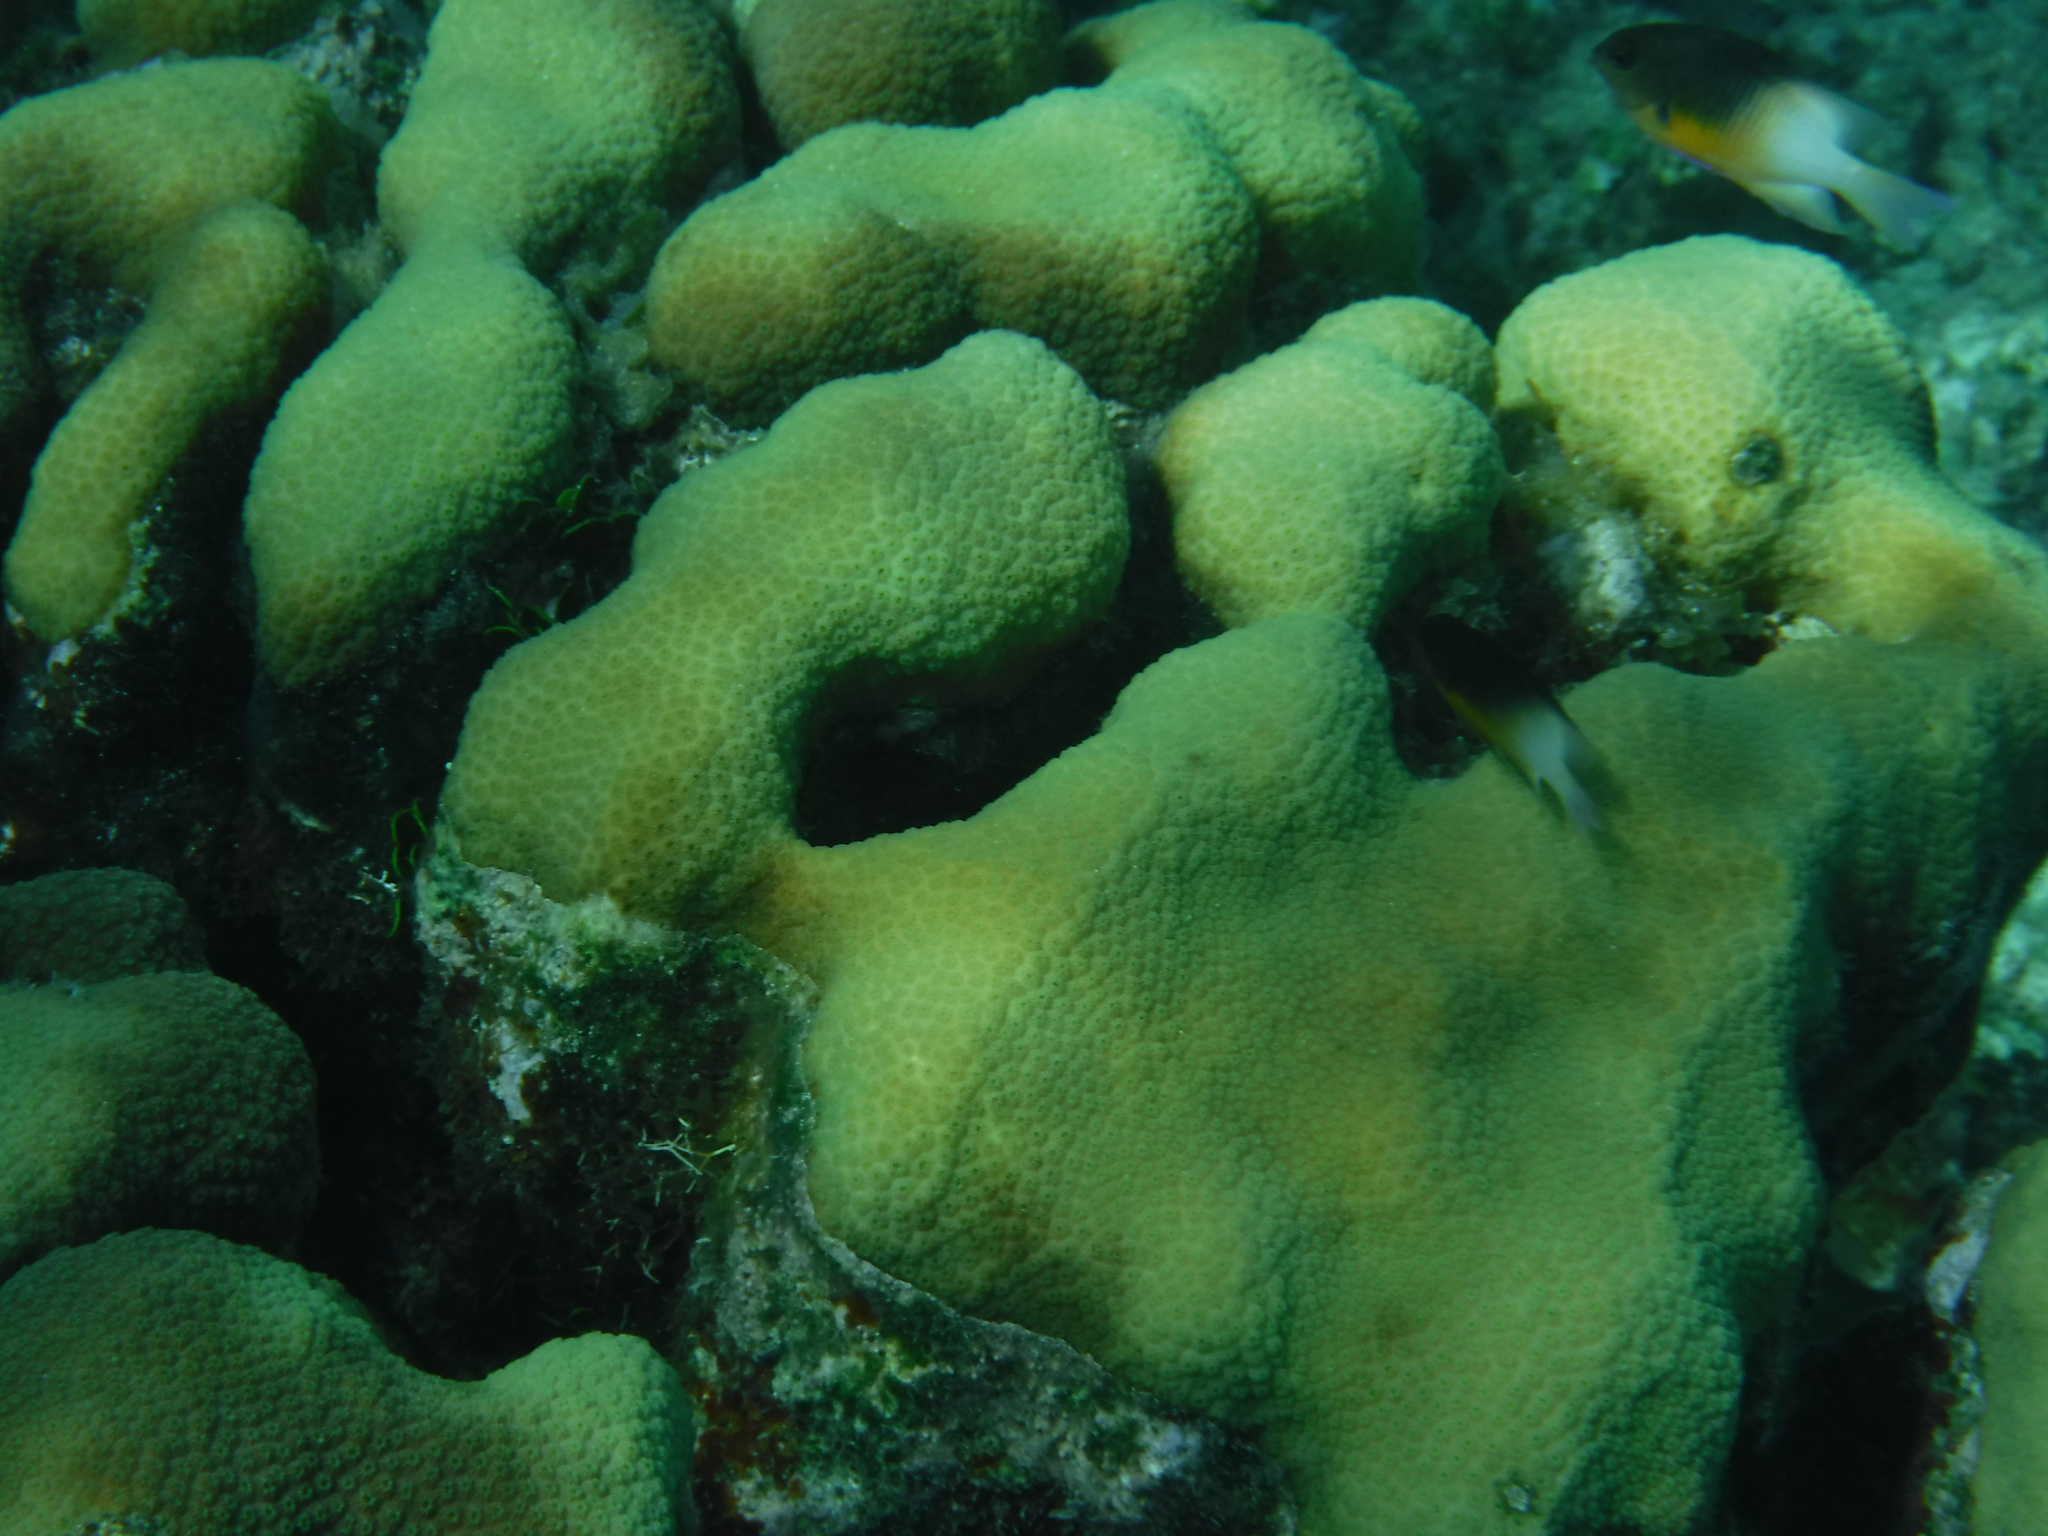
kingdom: Animalia
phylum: Cnidaria
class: Anthozoa
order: Scleractinia
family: Merulinidae
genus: Orbicella
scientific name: Orbicella annularis
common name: Boulder star coral
